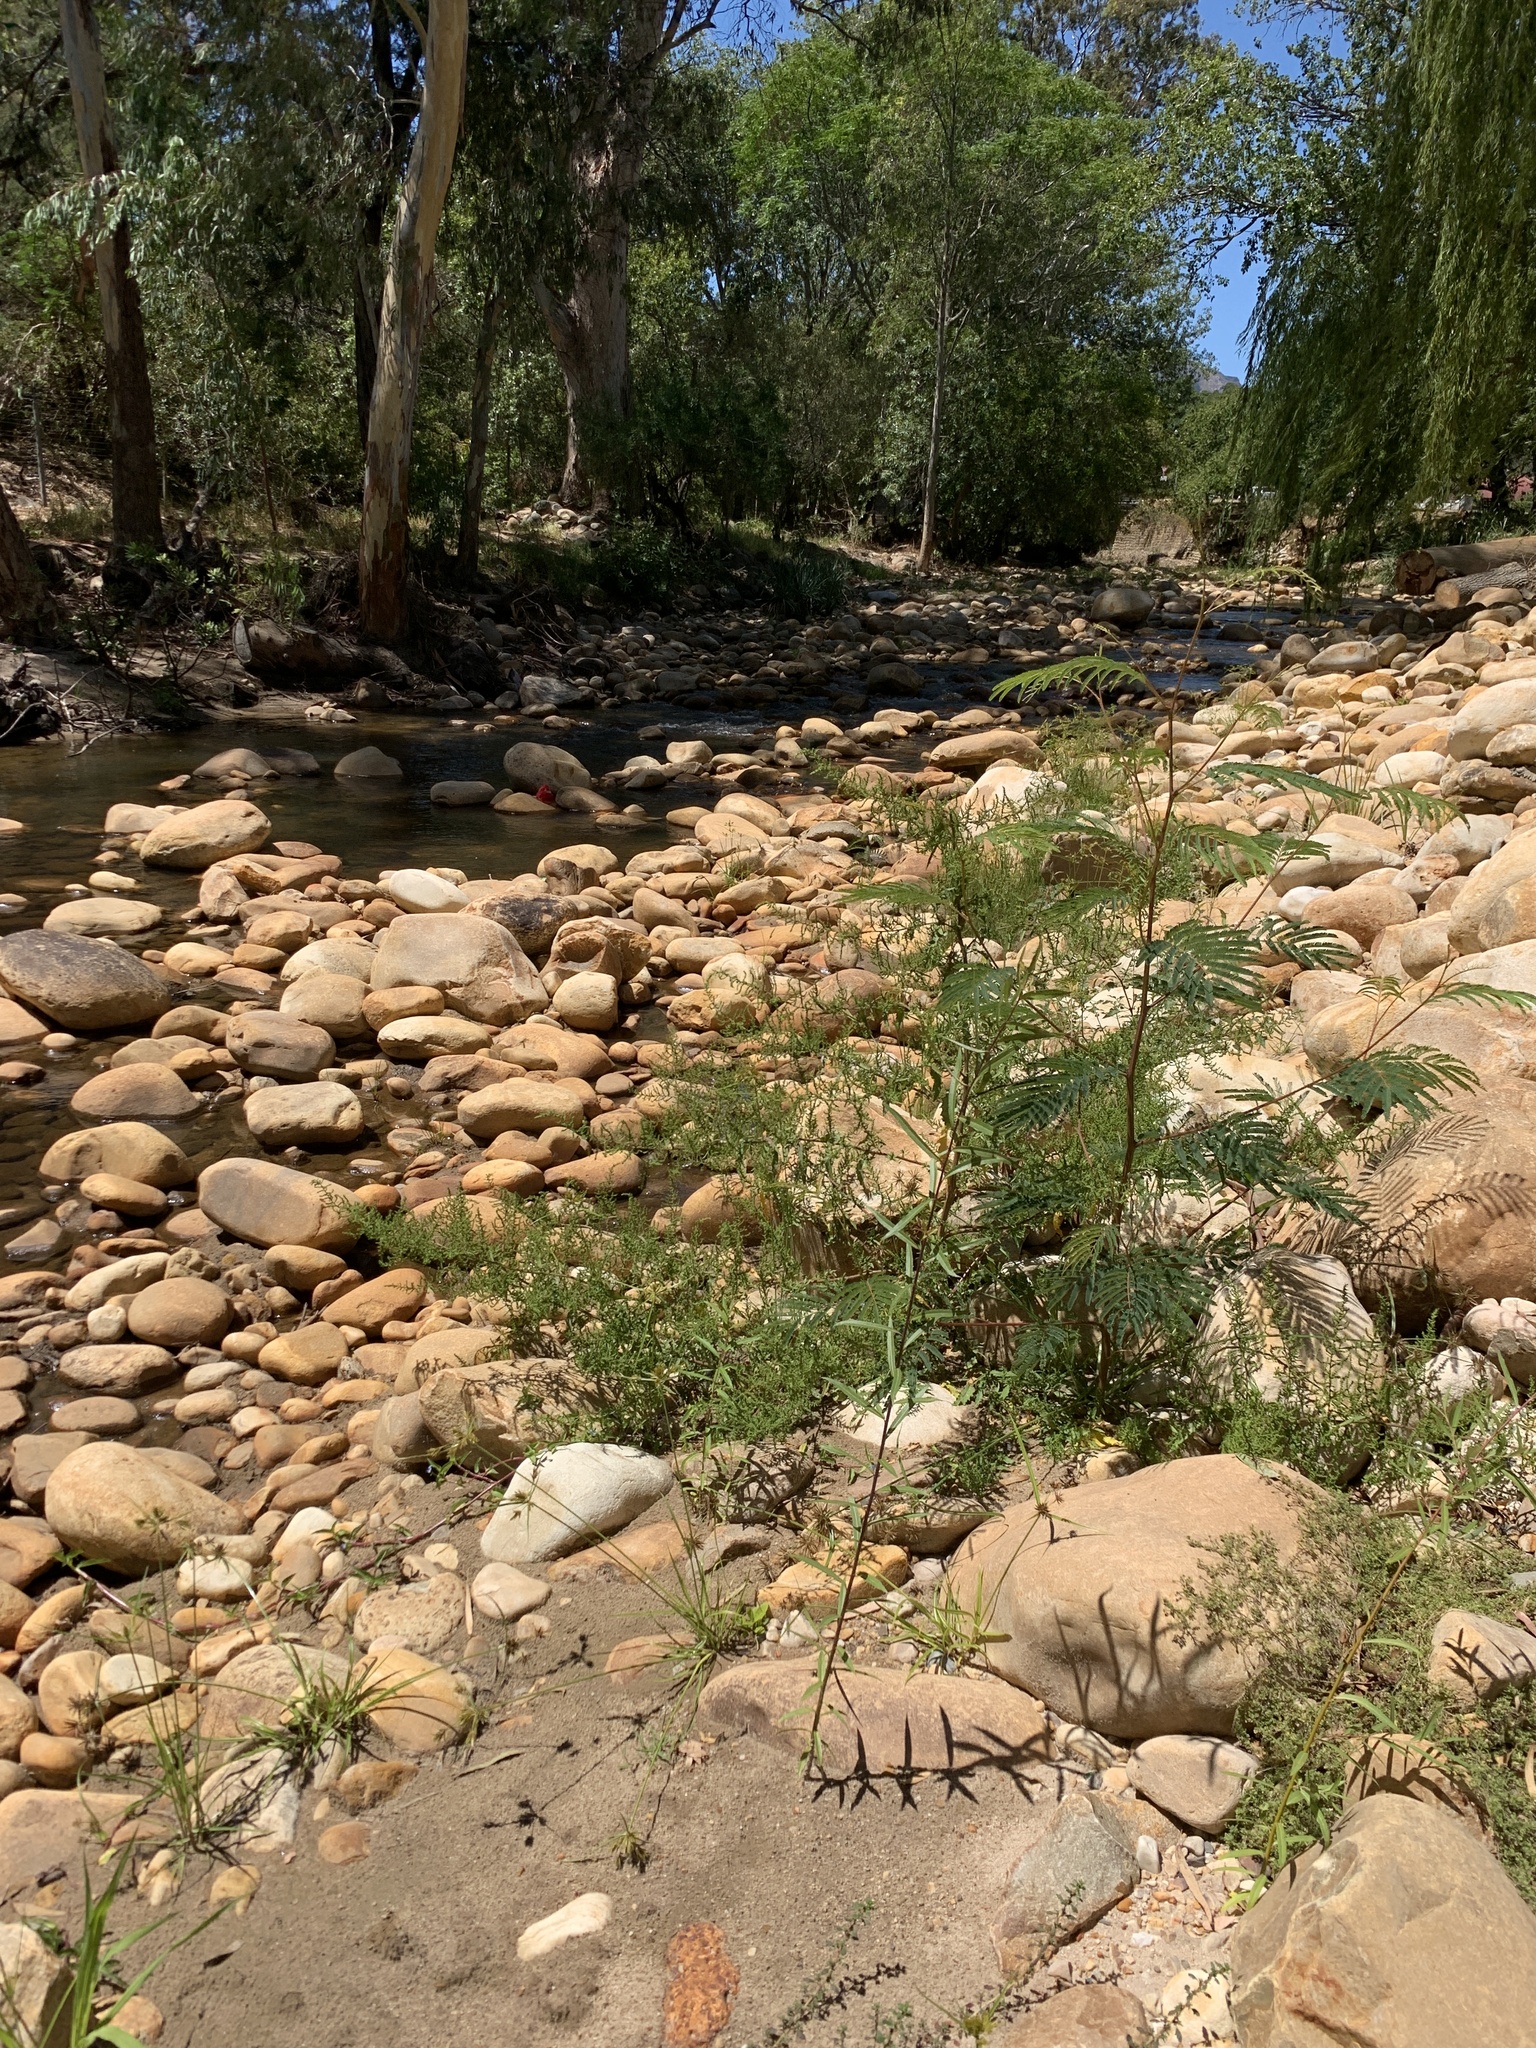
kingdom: Plantae
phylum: Tracheophyta
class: Magnoliopsida
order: Fabales
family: Fabaceae
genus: Paraserianthes
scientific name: Paraserianthes lophantha
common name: Plume albizia
